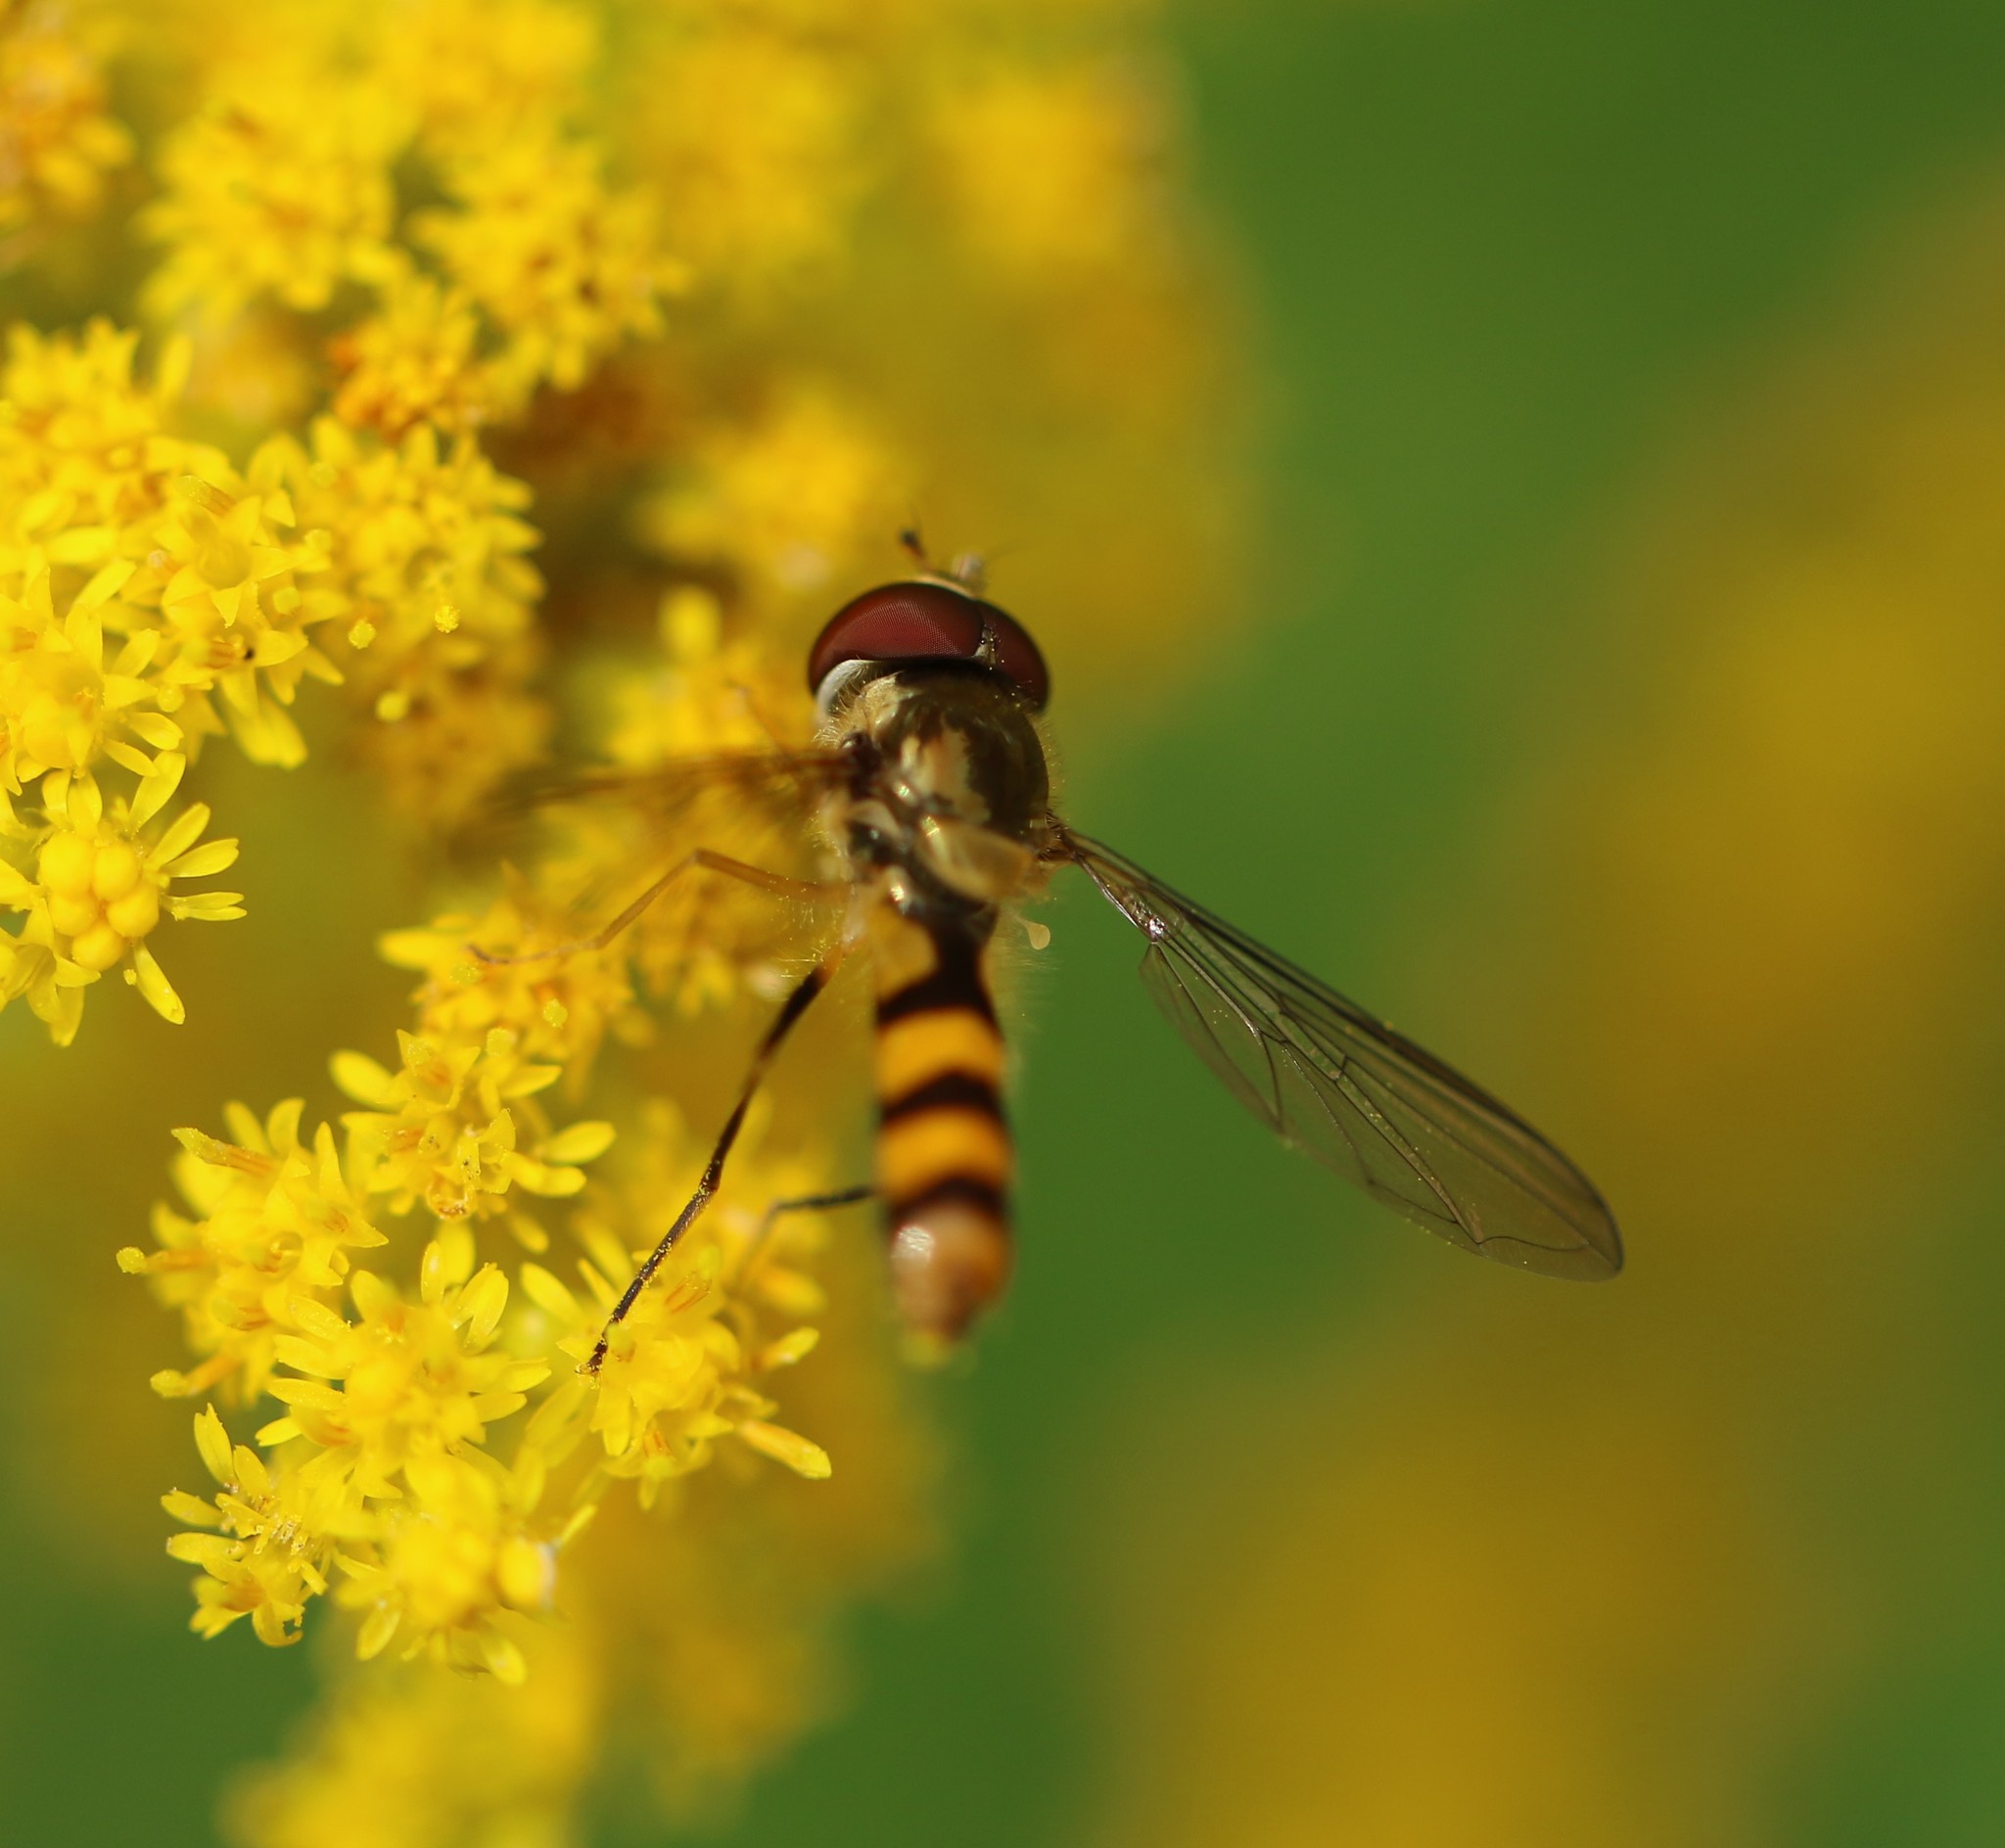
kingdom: Animalia
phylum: Arthropoda
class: Insecta
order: Diptera
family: Syrphidae
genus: Meliscaeva
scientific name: Meliscaeva cinctella
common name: American thintail fly
